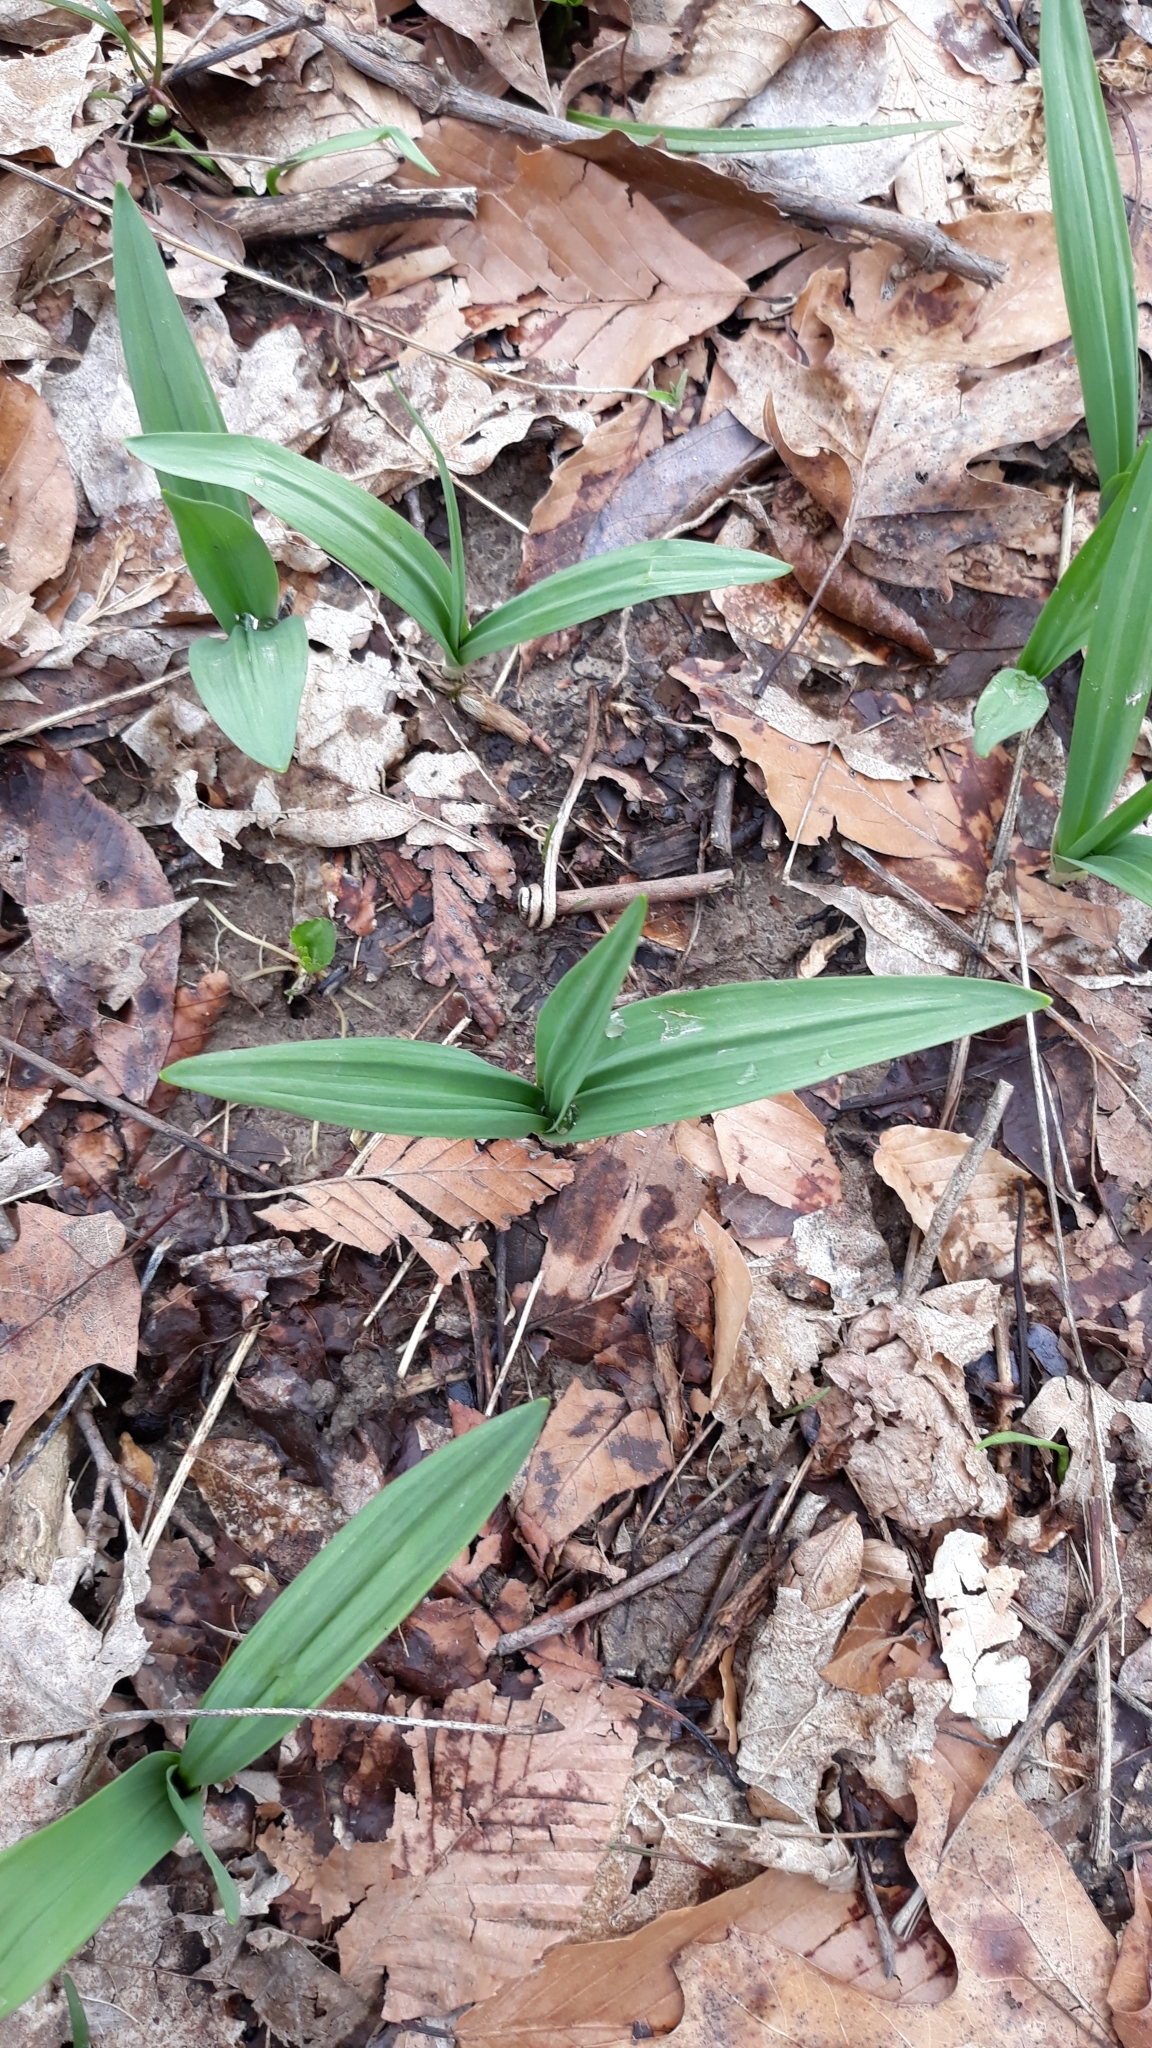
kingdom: Plantae
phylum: Tracheophyta
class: Liliopsida
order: Asparagales
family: Amaryllidaceae
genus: Allium
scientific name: Allium tricoccum
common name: Ramp
